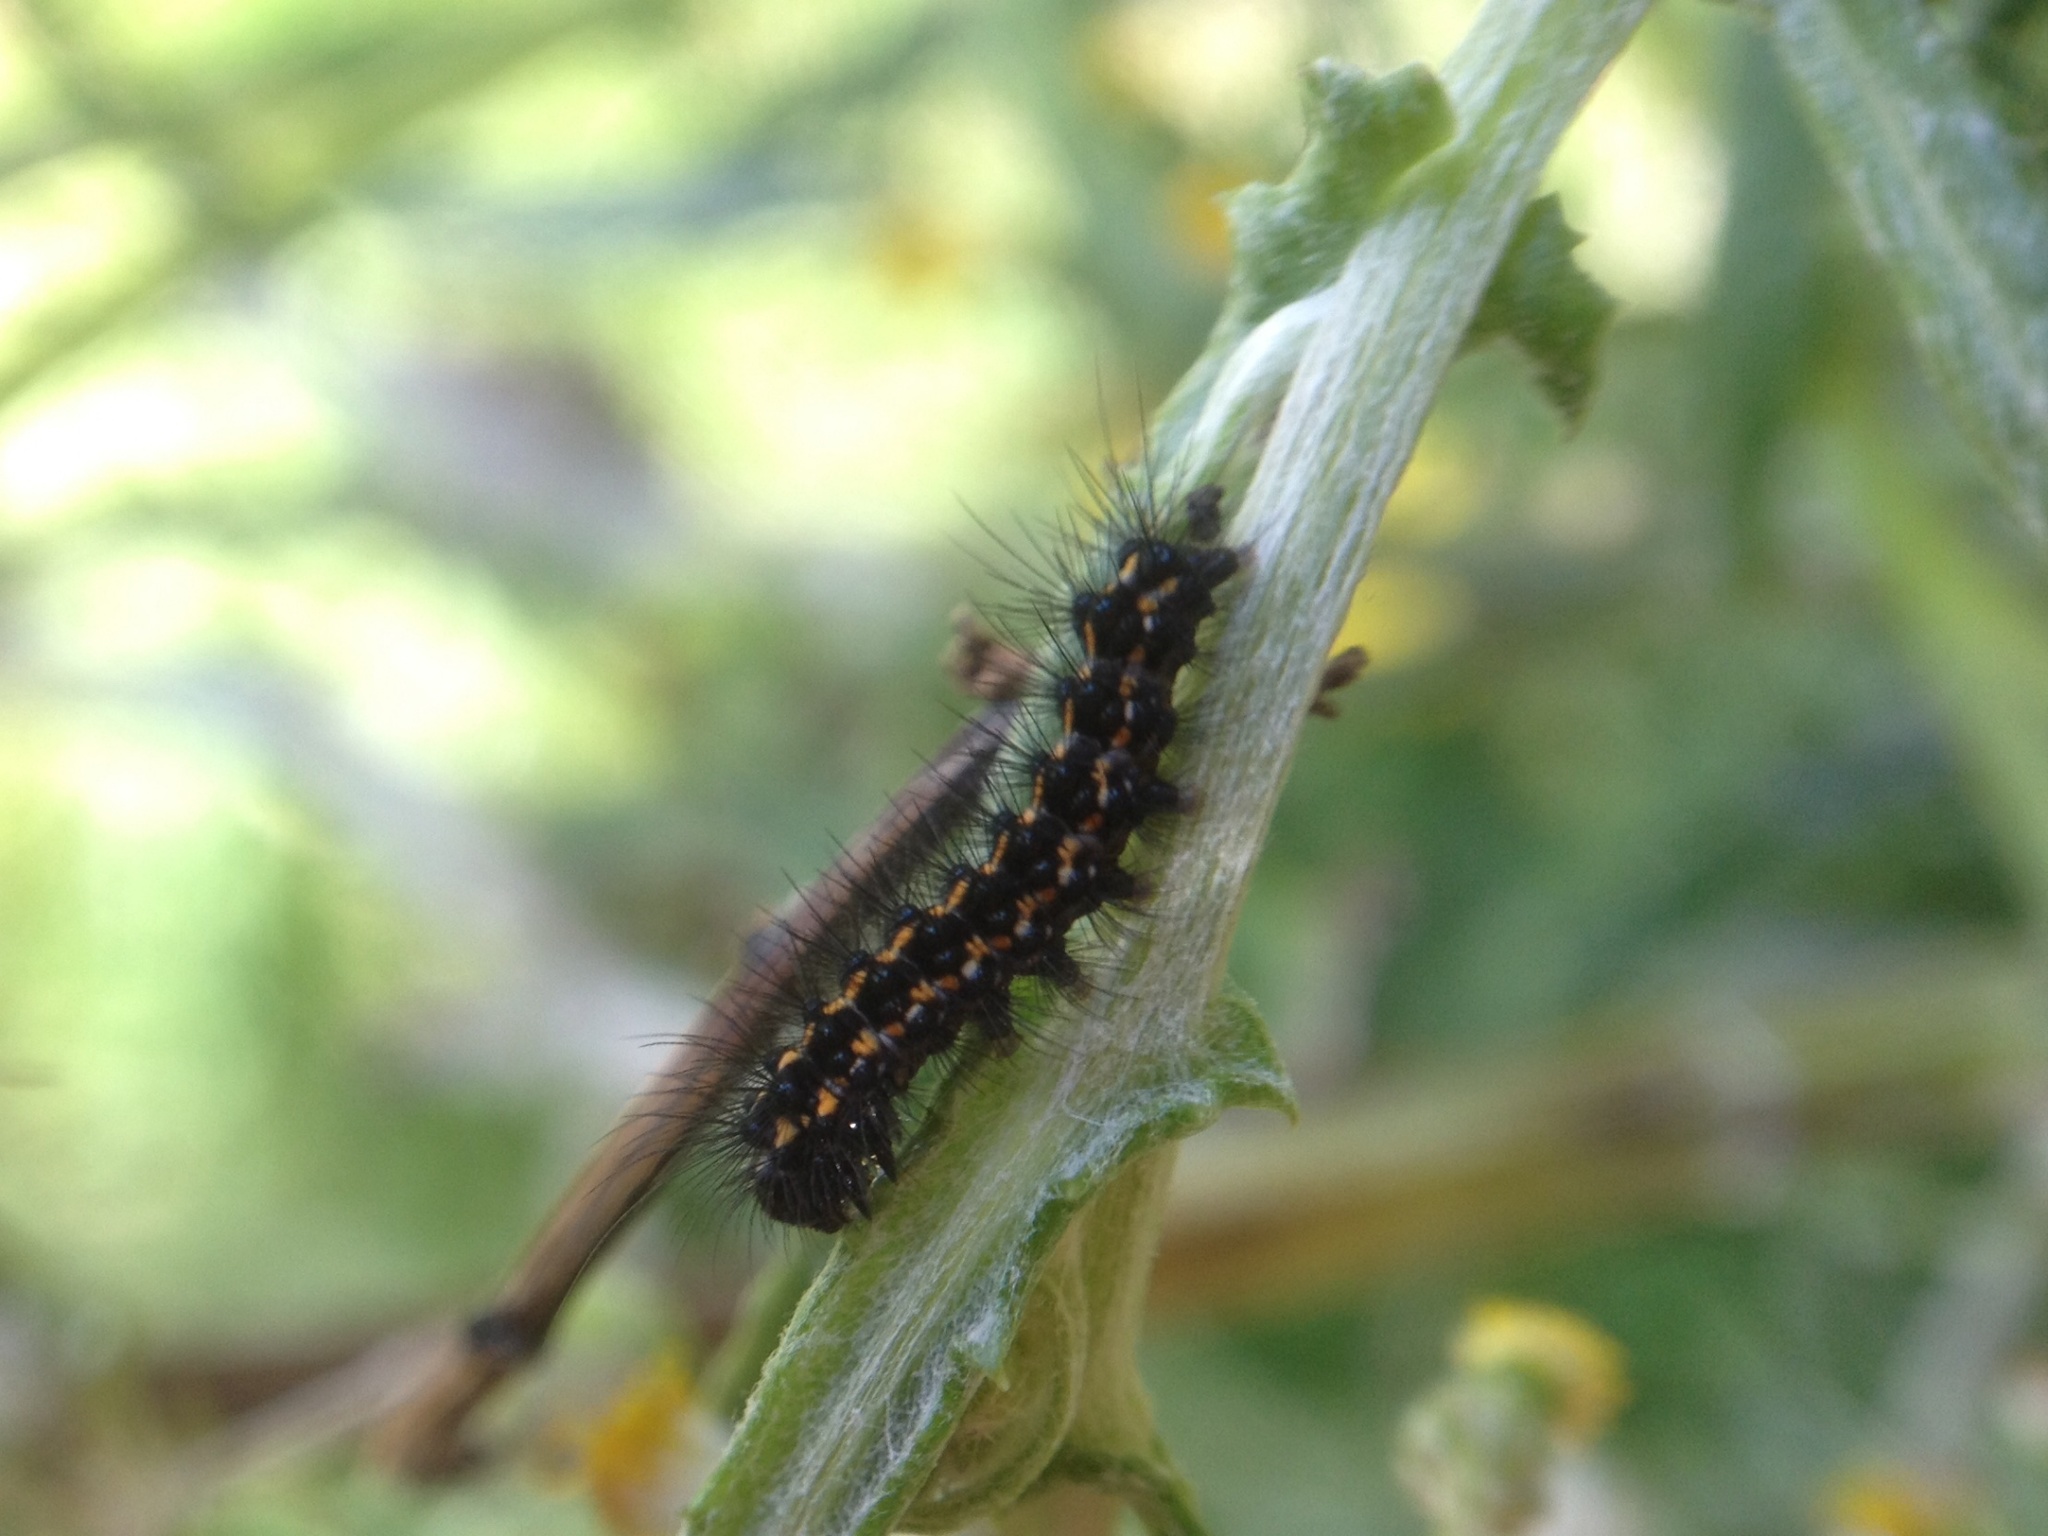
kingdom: Animalia
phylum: Arthropoda
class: Insecta
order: Lepidoptera
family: Erebidae
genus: Nyctemera
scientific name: Nyctemera annulatum
